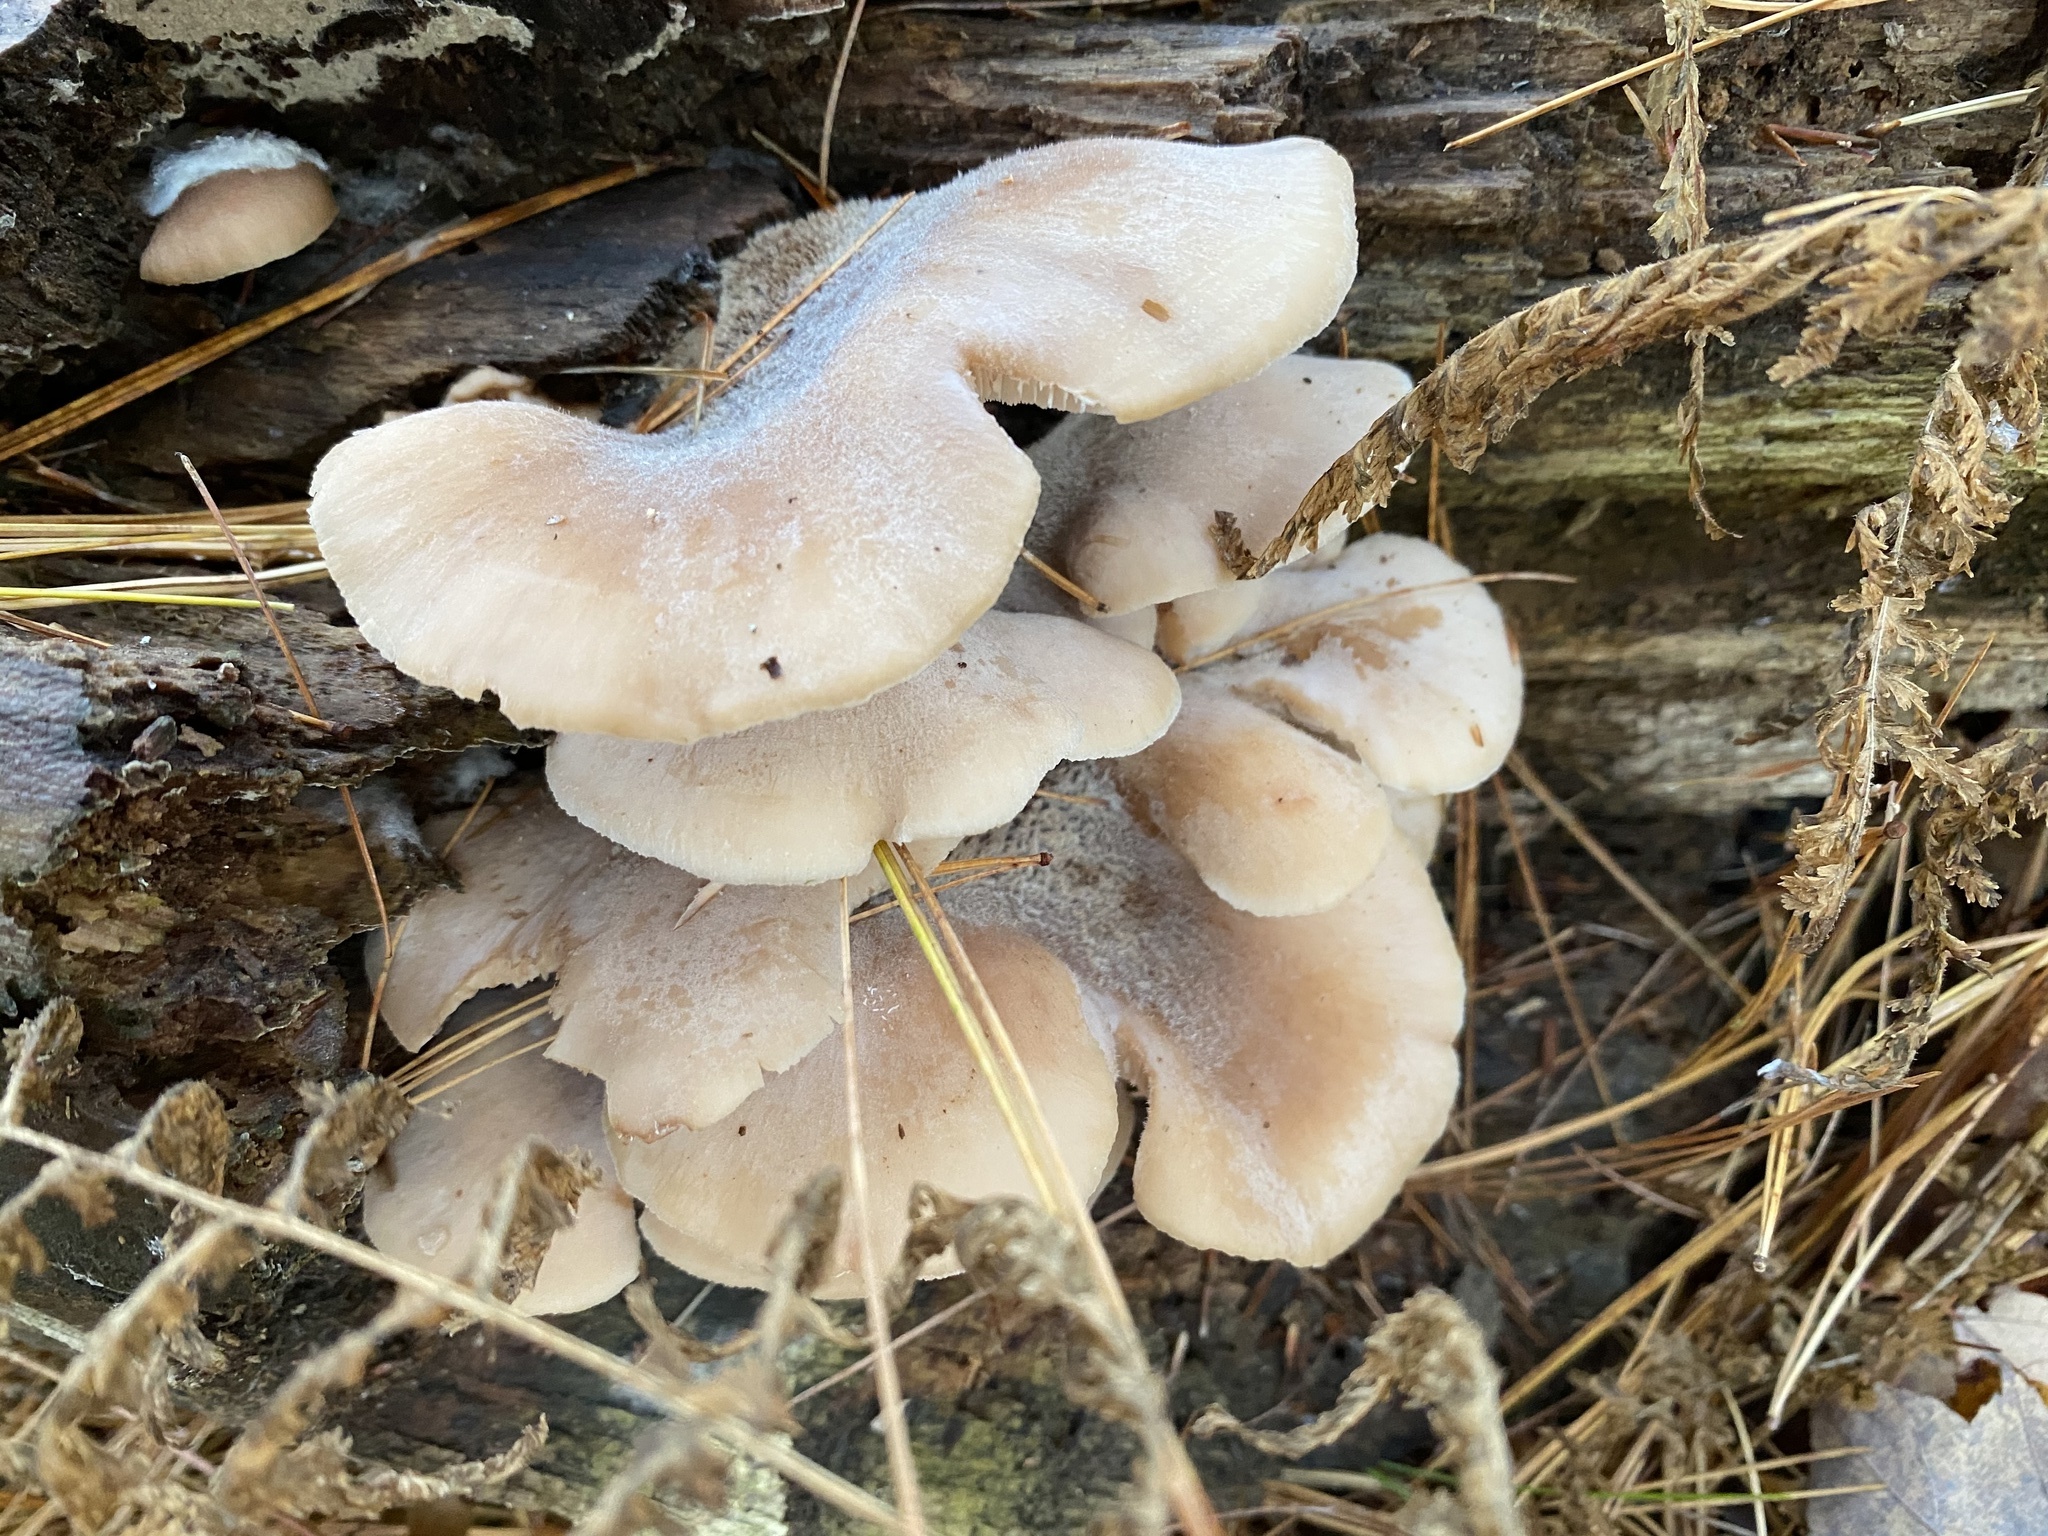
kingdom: Fungi
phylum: Basidiomycota
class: Agaricomycetes
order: Russulales
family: Auriscalpiaceae
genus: Lentinellus
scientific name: Lentinellus ursinus
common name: Bear lentinus
